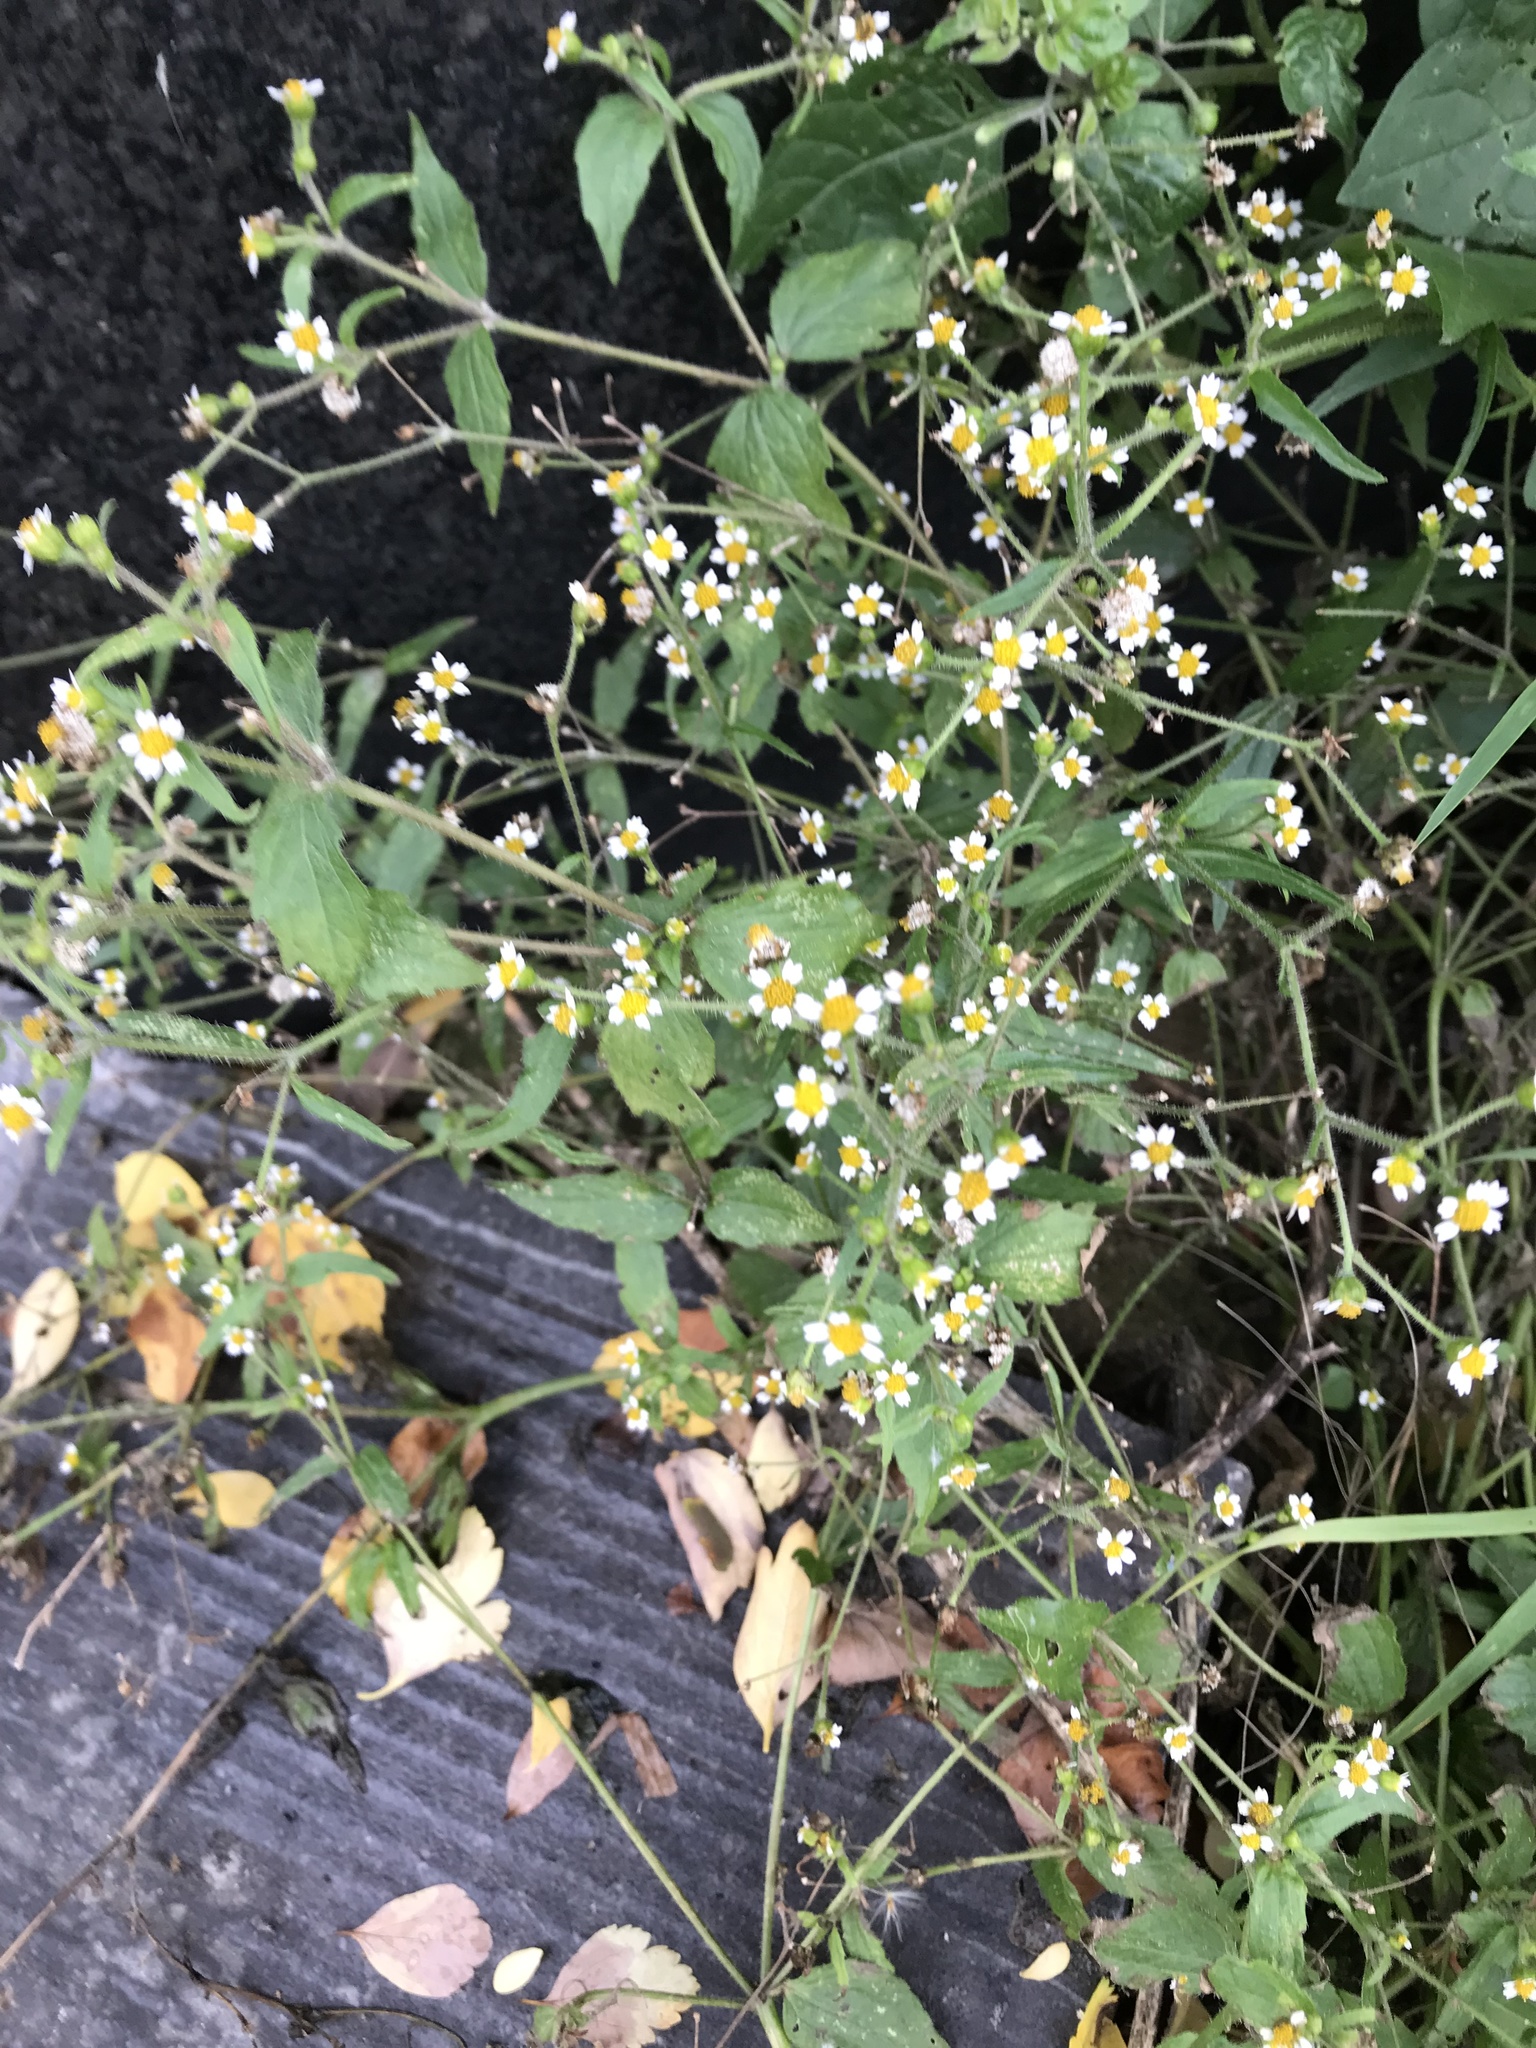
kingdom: Plantae
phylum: Tracheophyta
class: Magnoliopsida
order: Asterales
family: Asteraceae
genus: Galinsoga
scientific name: Galinsoga quadriradiata
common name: Shaggy soldier
